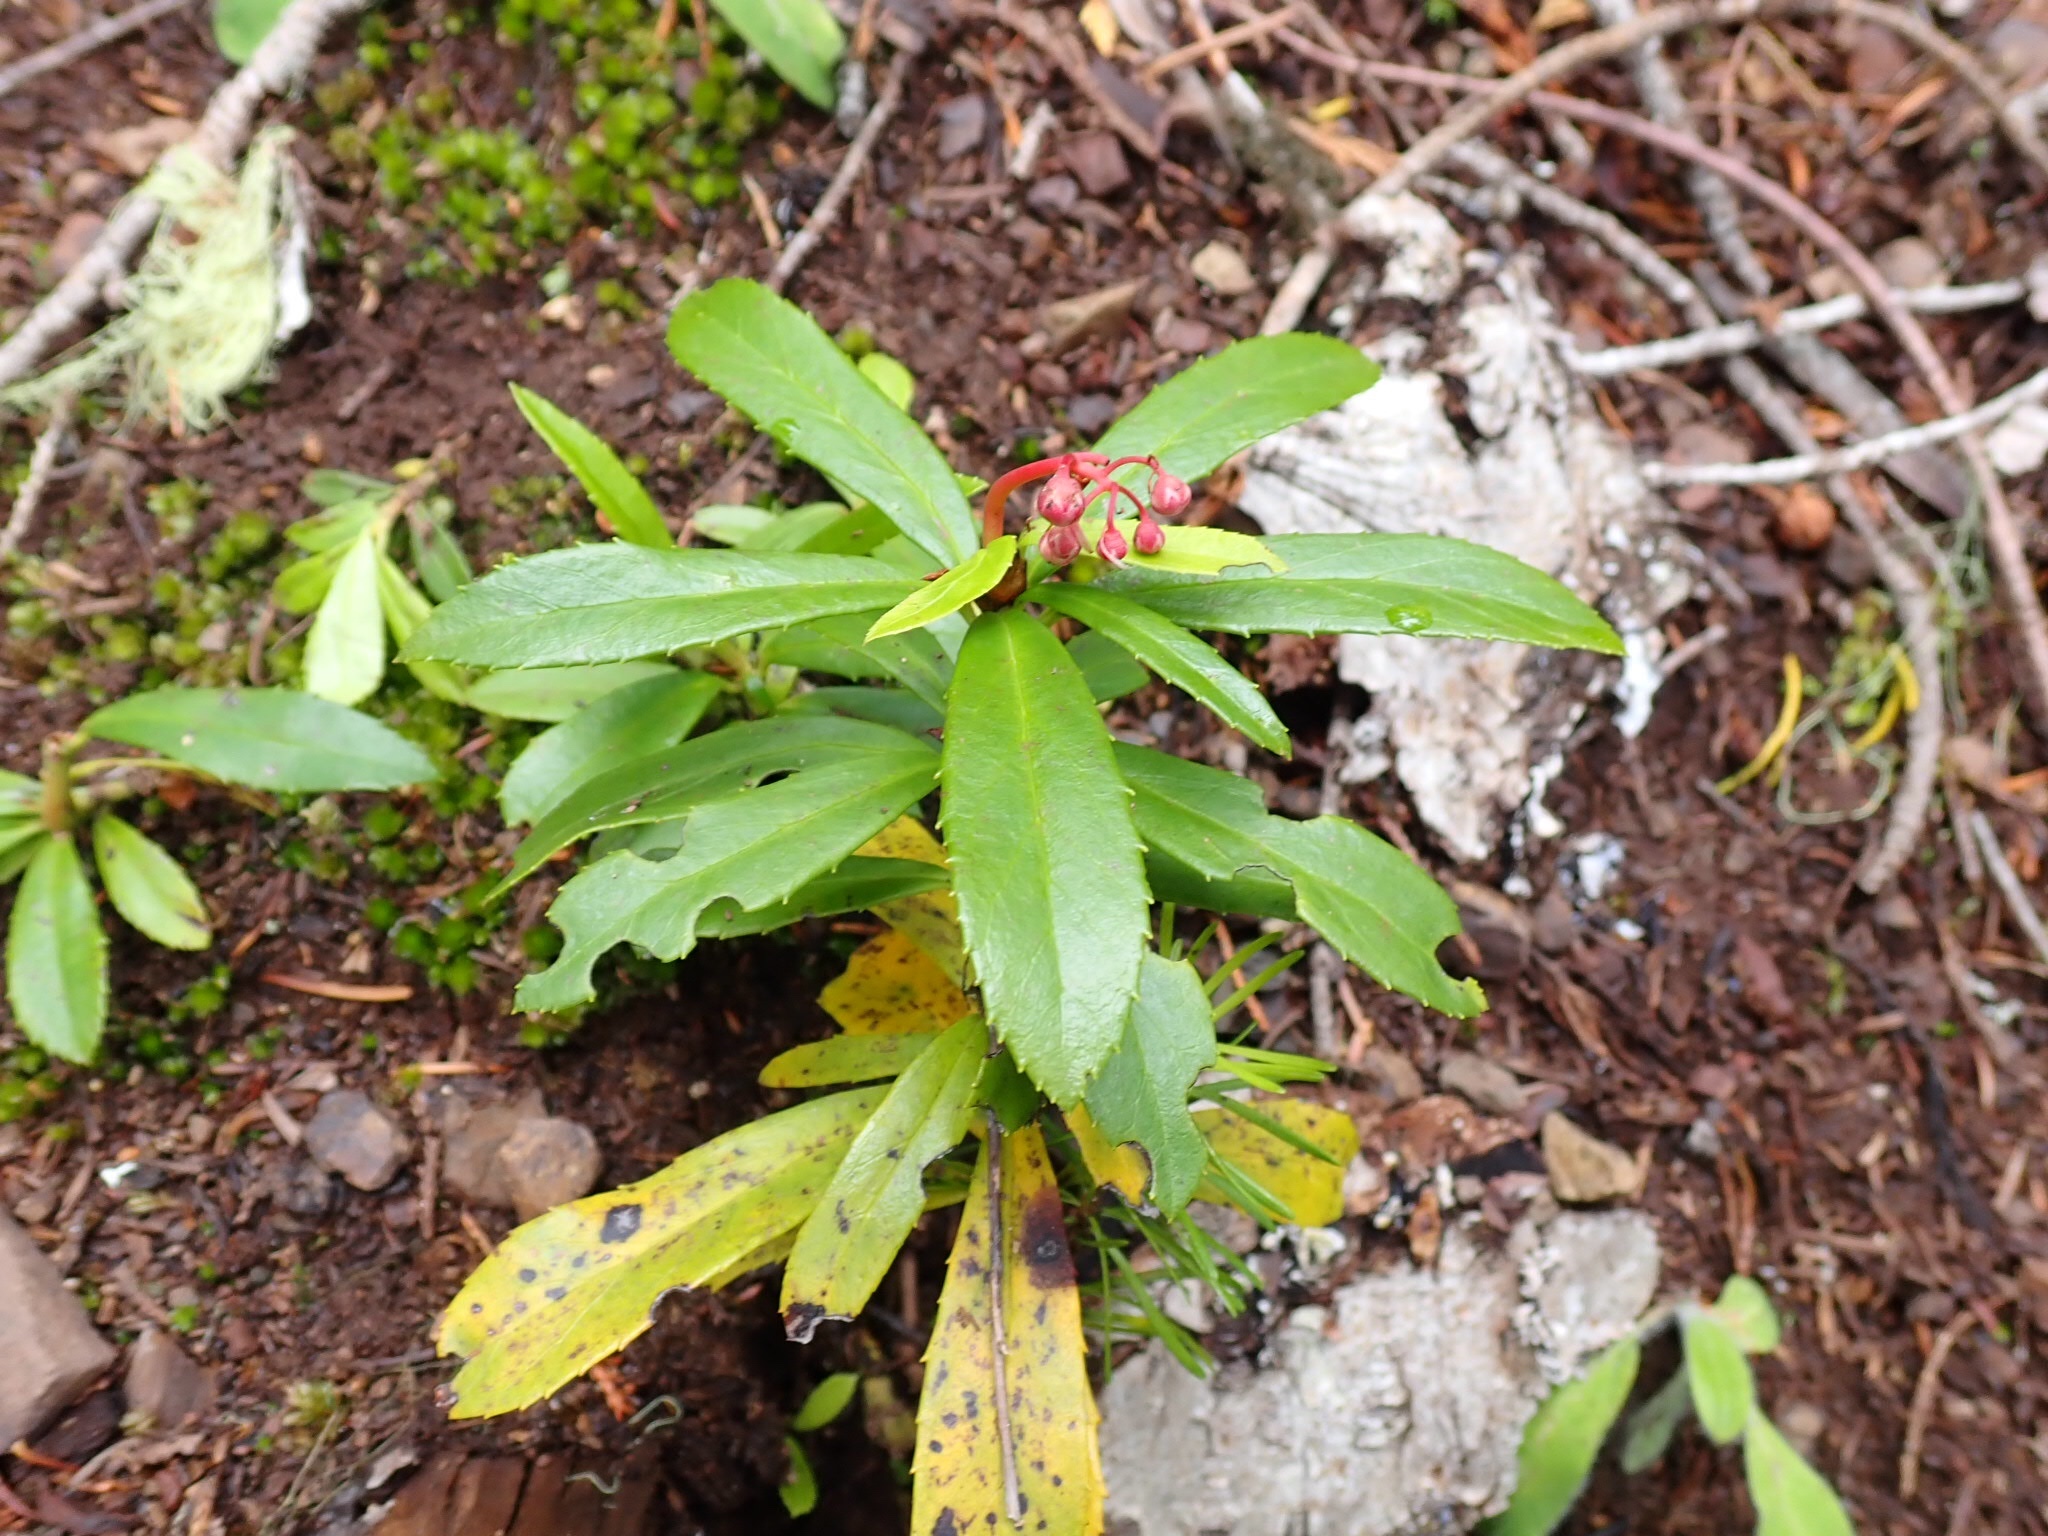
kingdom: Plantae
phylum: Tracheophyta
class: Magnoliopsida
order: Ericales
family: Ericaceae
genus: Chimaphila
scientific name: Chimaphila umbellata
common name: Pipsissewa
